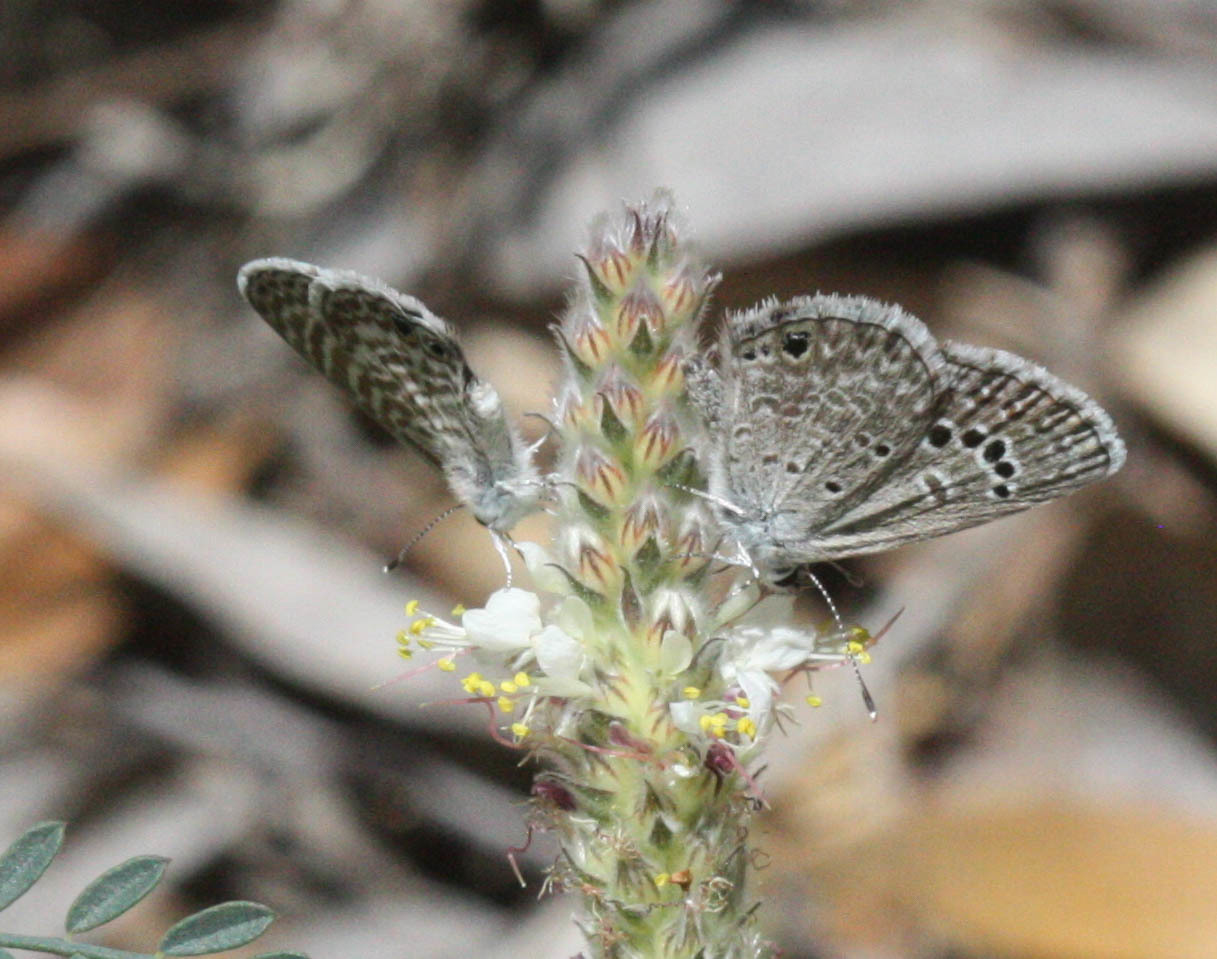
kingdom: Animalia
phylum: Arthropoda
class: Insecta
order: Lepidoptera
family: Lycaenidae
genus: Echinargus
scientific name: Echinargus isola
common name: Reakirt's blue
